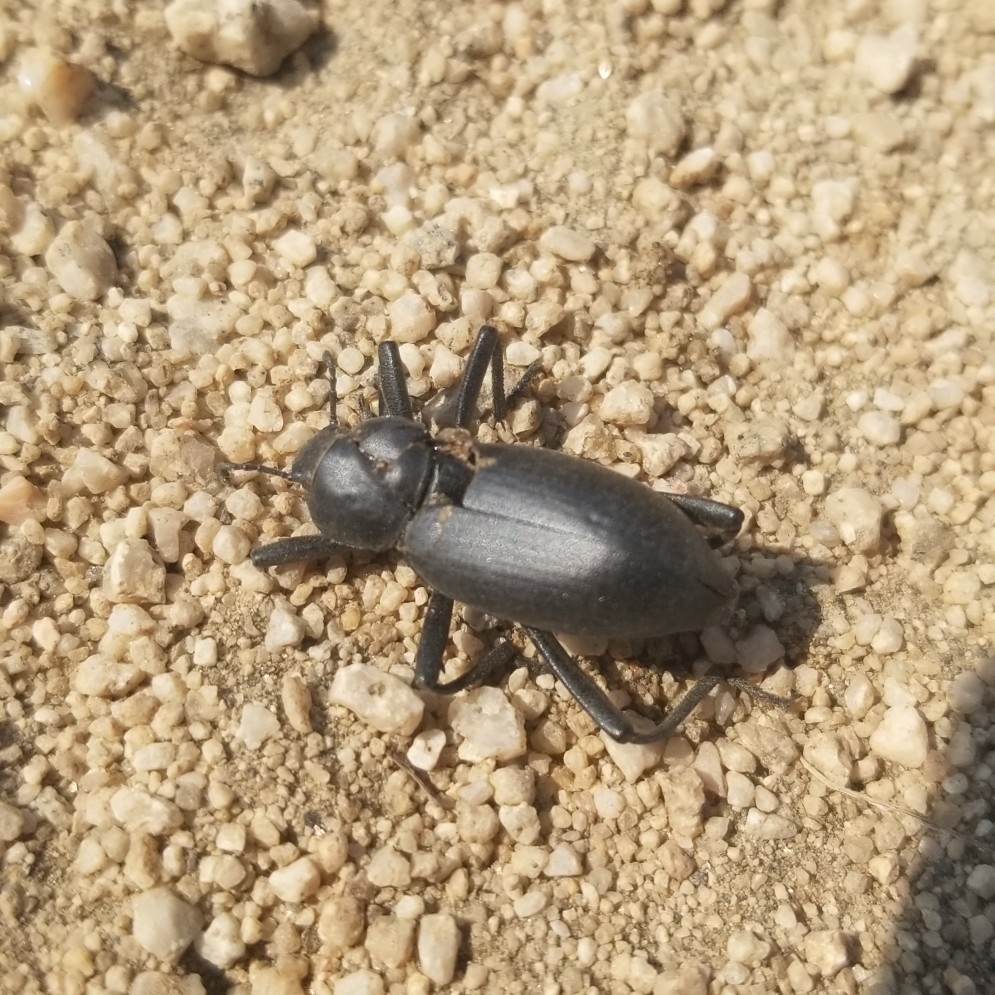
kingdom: Animalia
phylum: Arthropoda
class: Insecta
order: Coleoptera
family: Tenebrionidae
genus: Eleodes
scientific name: Eleodes armata
